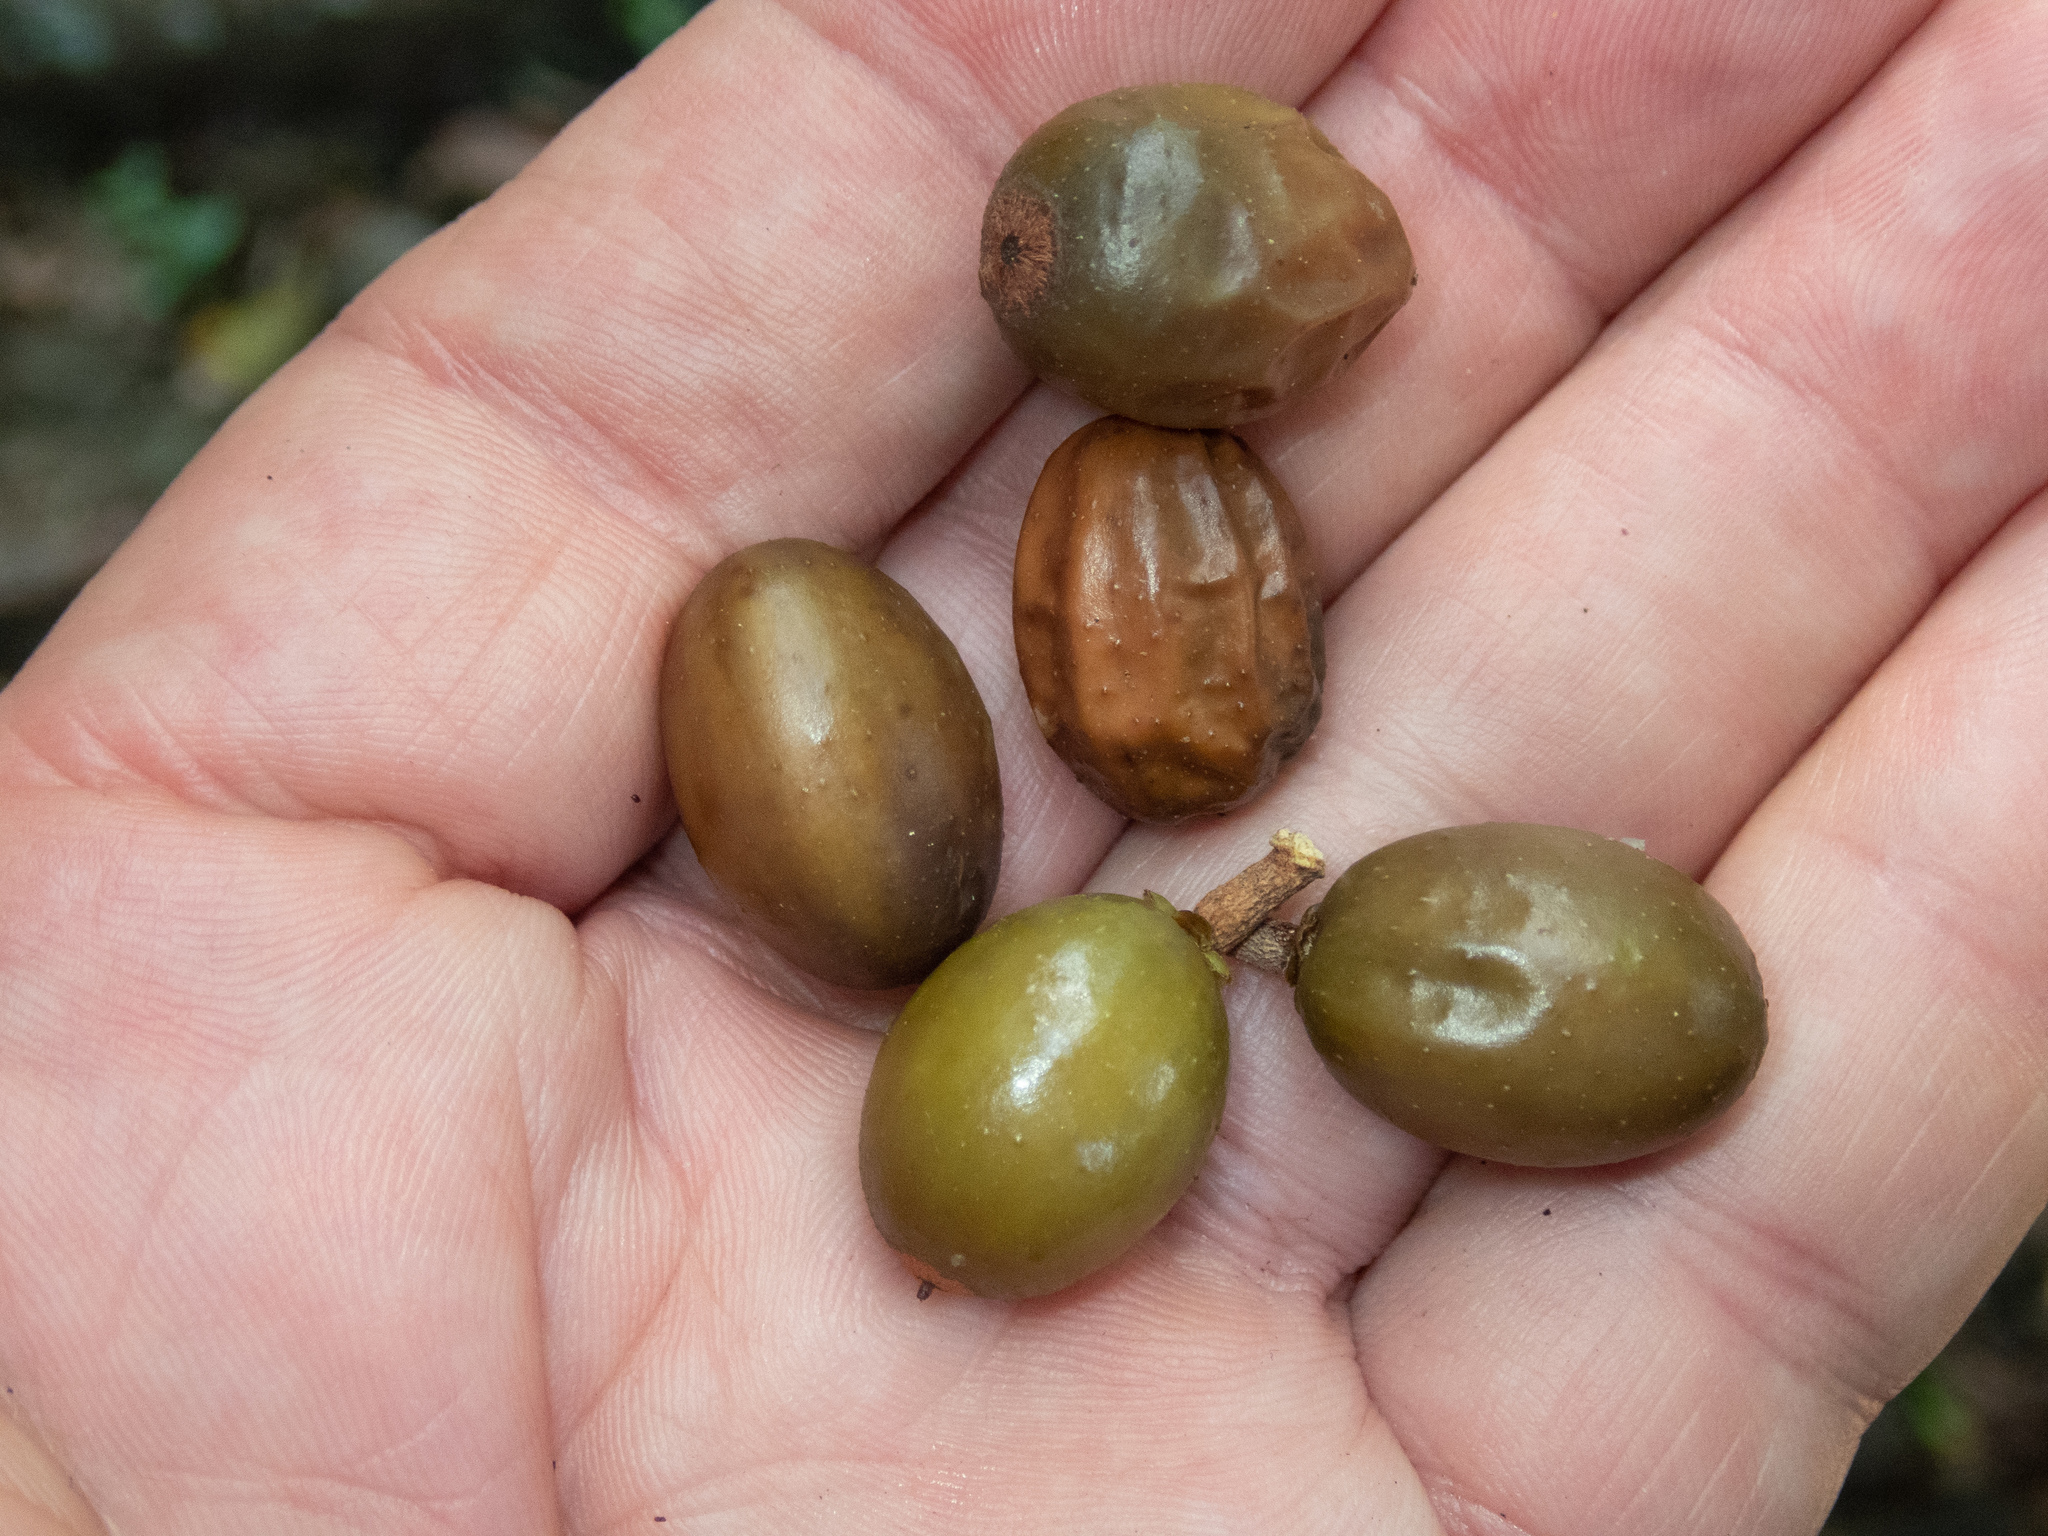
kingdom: Plantae
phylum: Tracheophyta
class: Magnoliopsida
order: Sapindales
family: Burseraceae
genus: Bursera
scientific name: Bursera simaruba
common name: Turpentine tree
